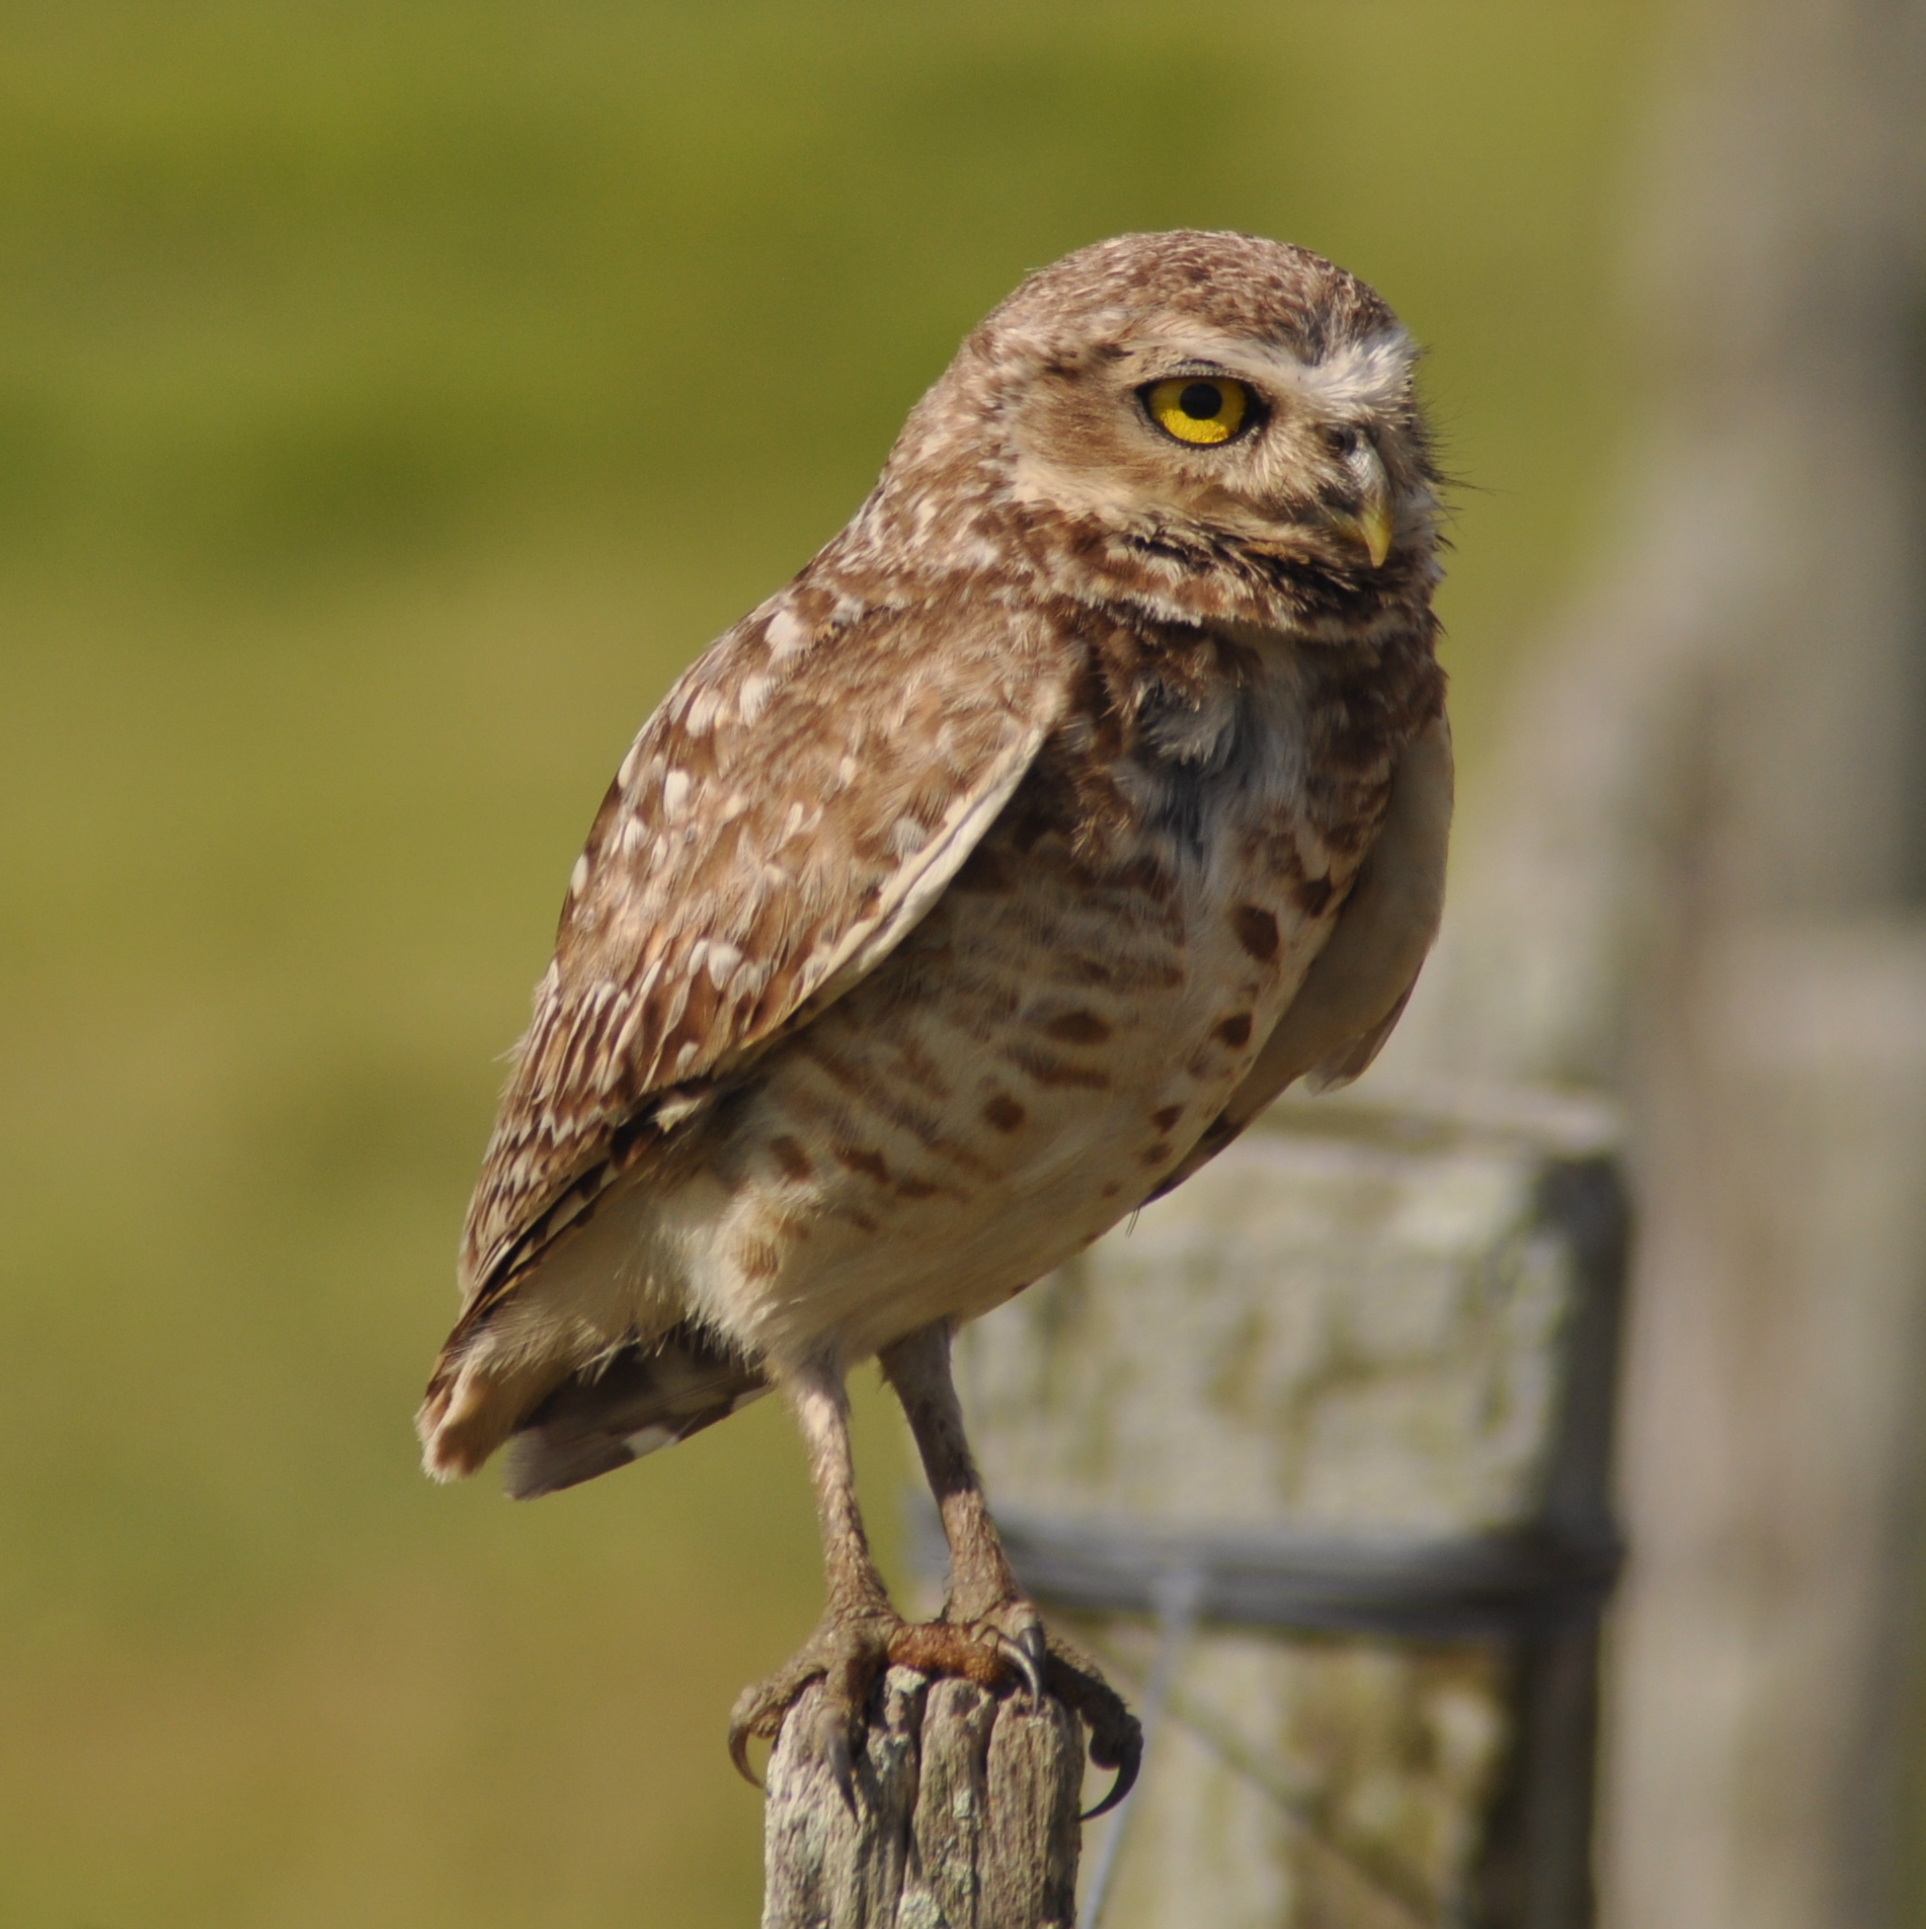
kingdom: Animalia
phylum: Chordata
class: Aves
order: Strigiformes
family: Strigidae
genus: Athene
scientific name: Athene cunicularia
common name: Burrowing owl
